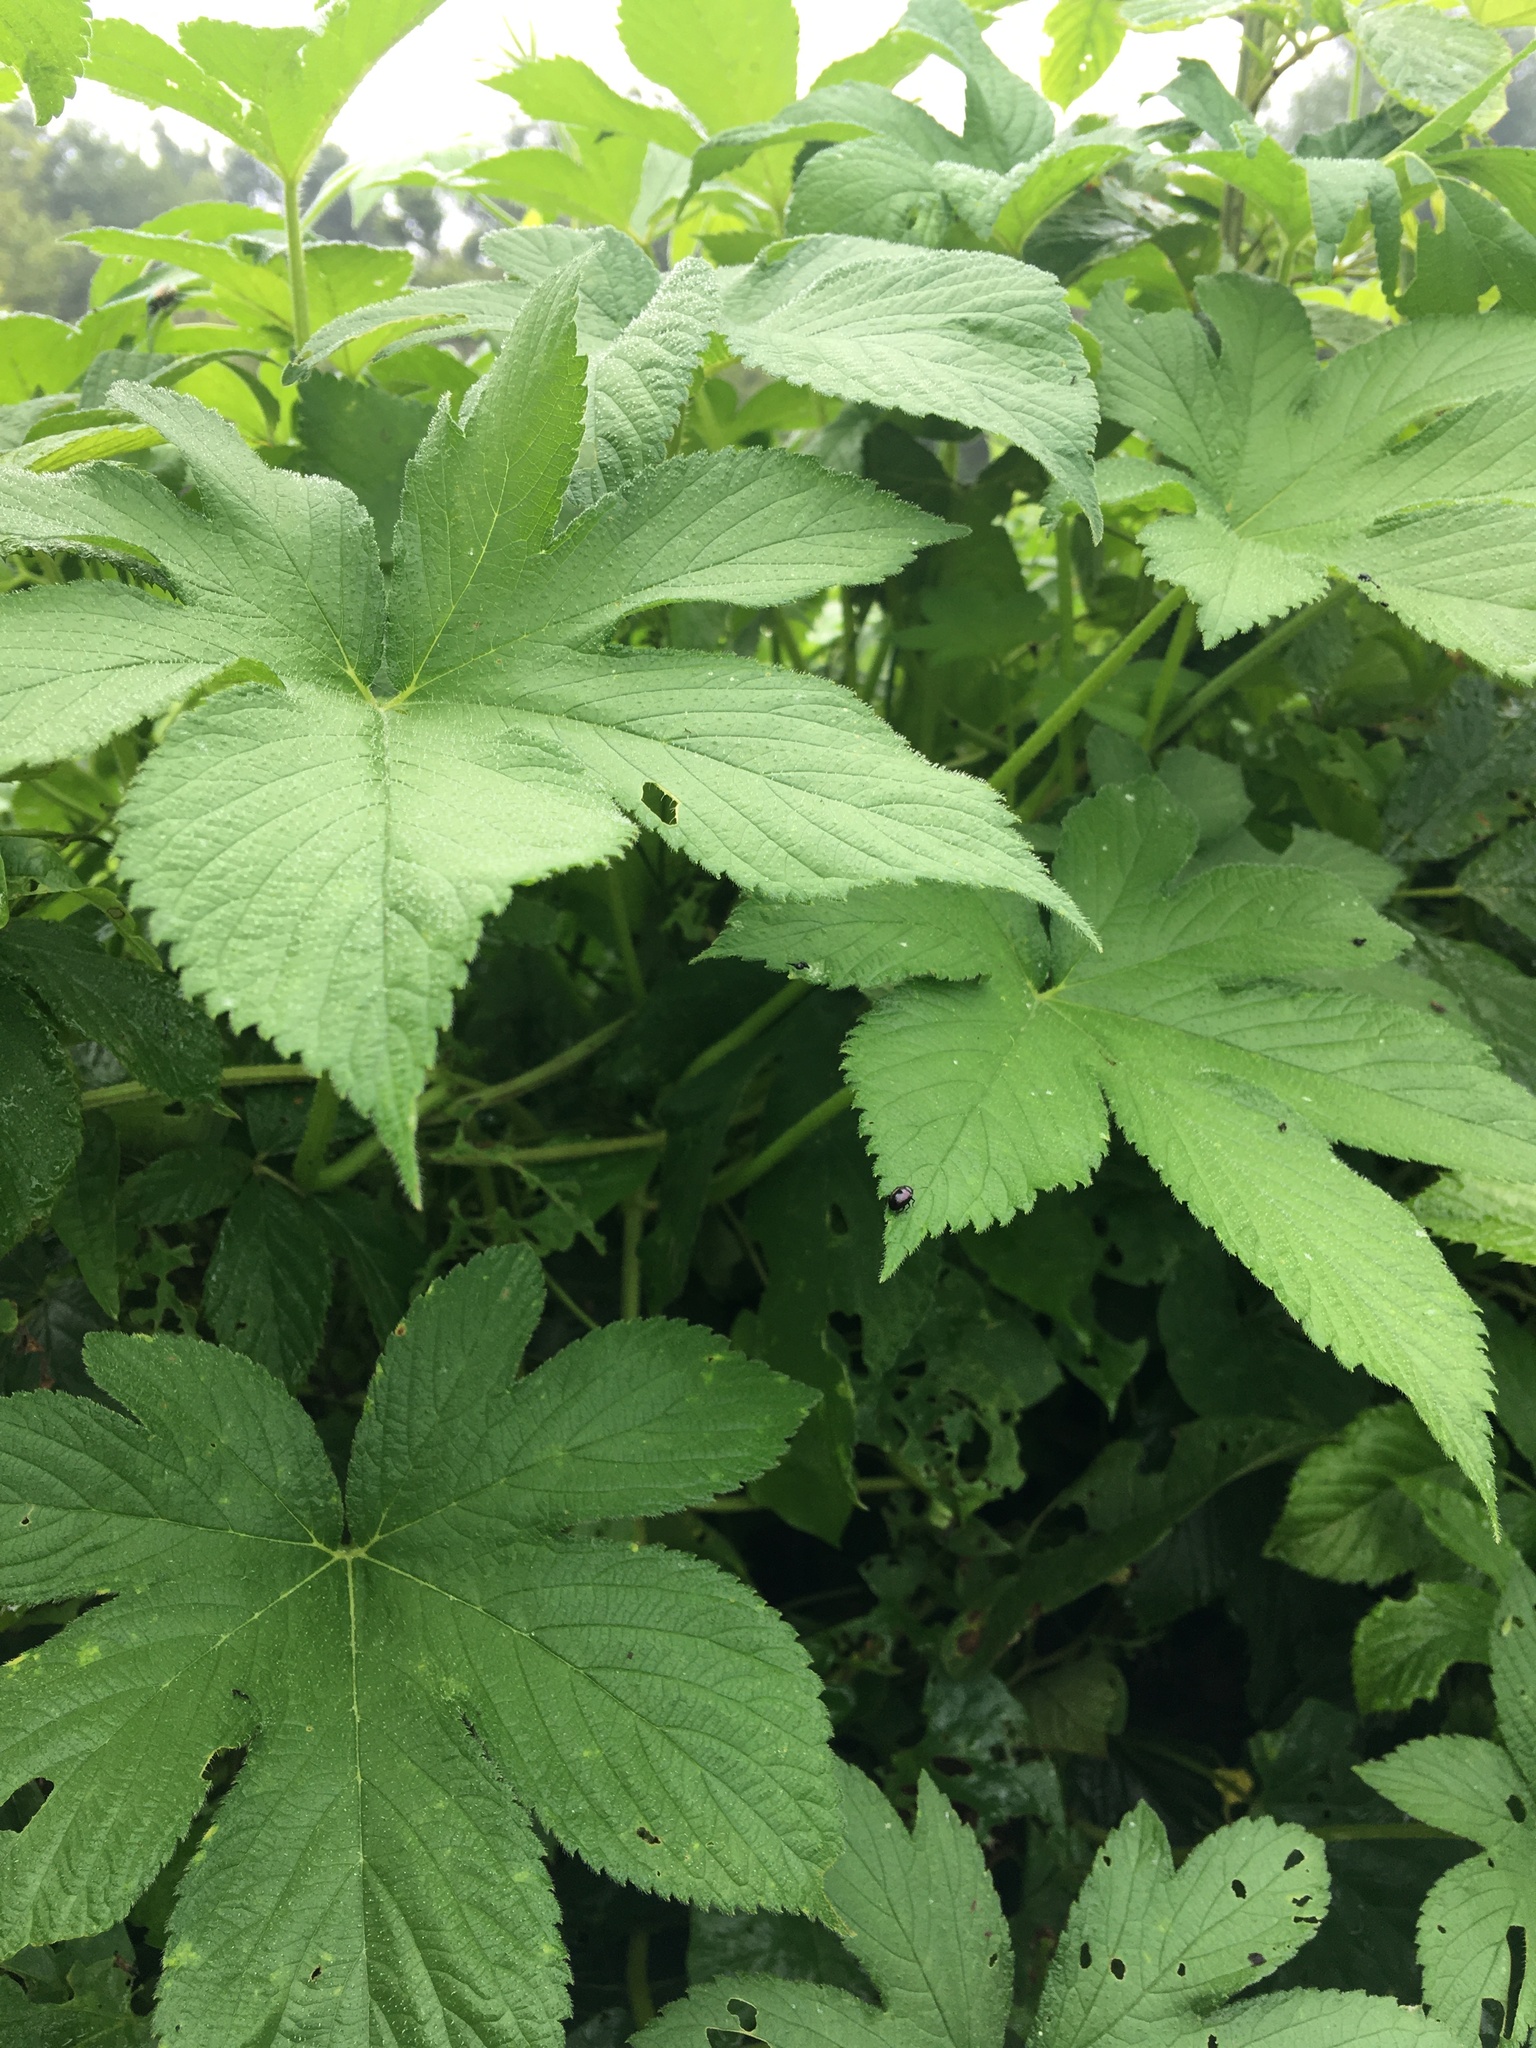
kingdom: Plantae
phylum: Tracheophyta
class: Magnoliopsida
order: Rosales
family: Cannabaceae
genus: Humulus
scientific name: Humulus scandens
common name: Japanese hop
